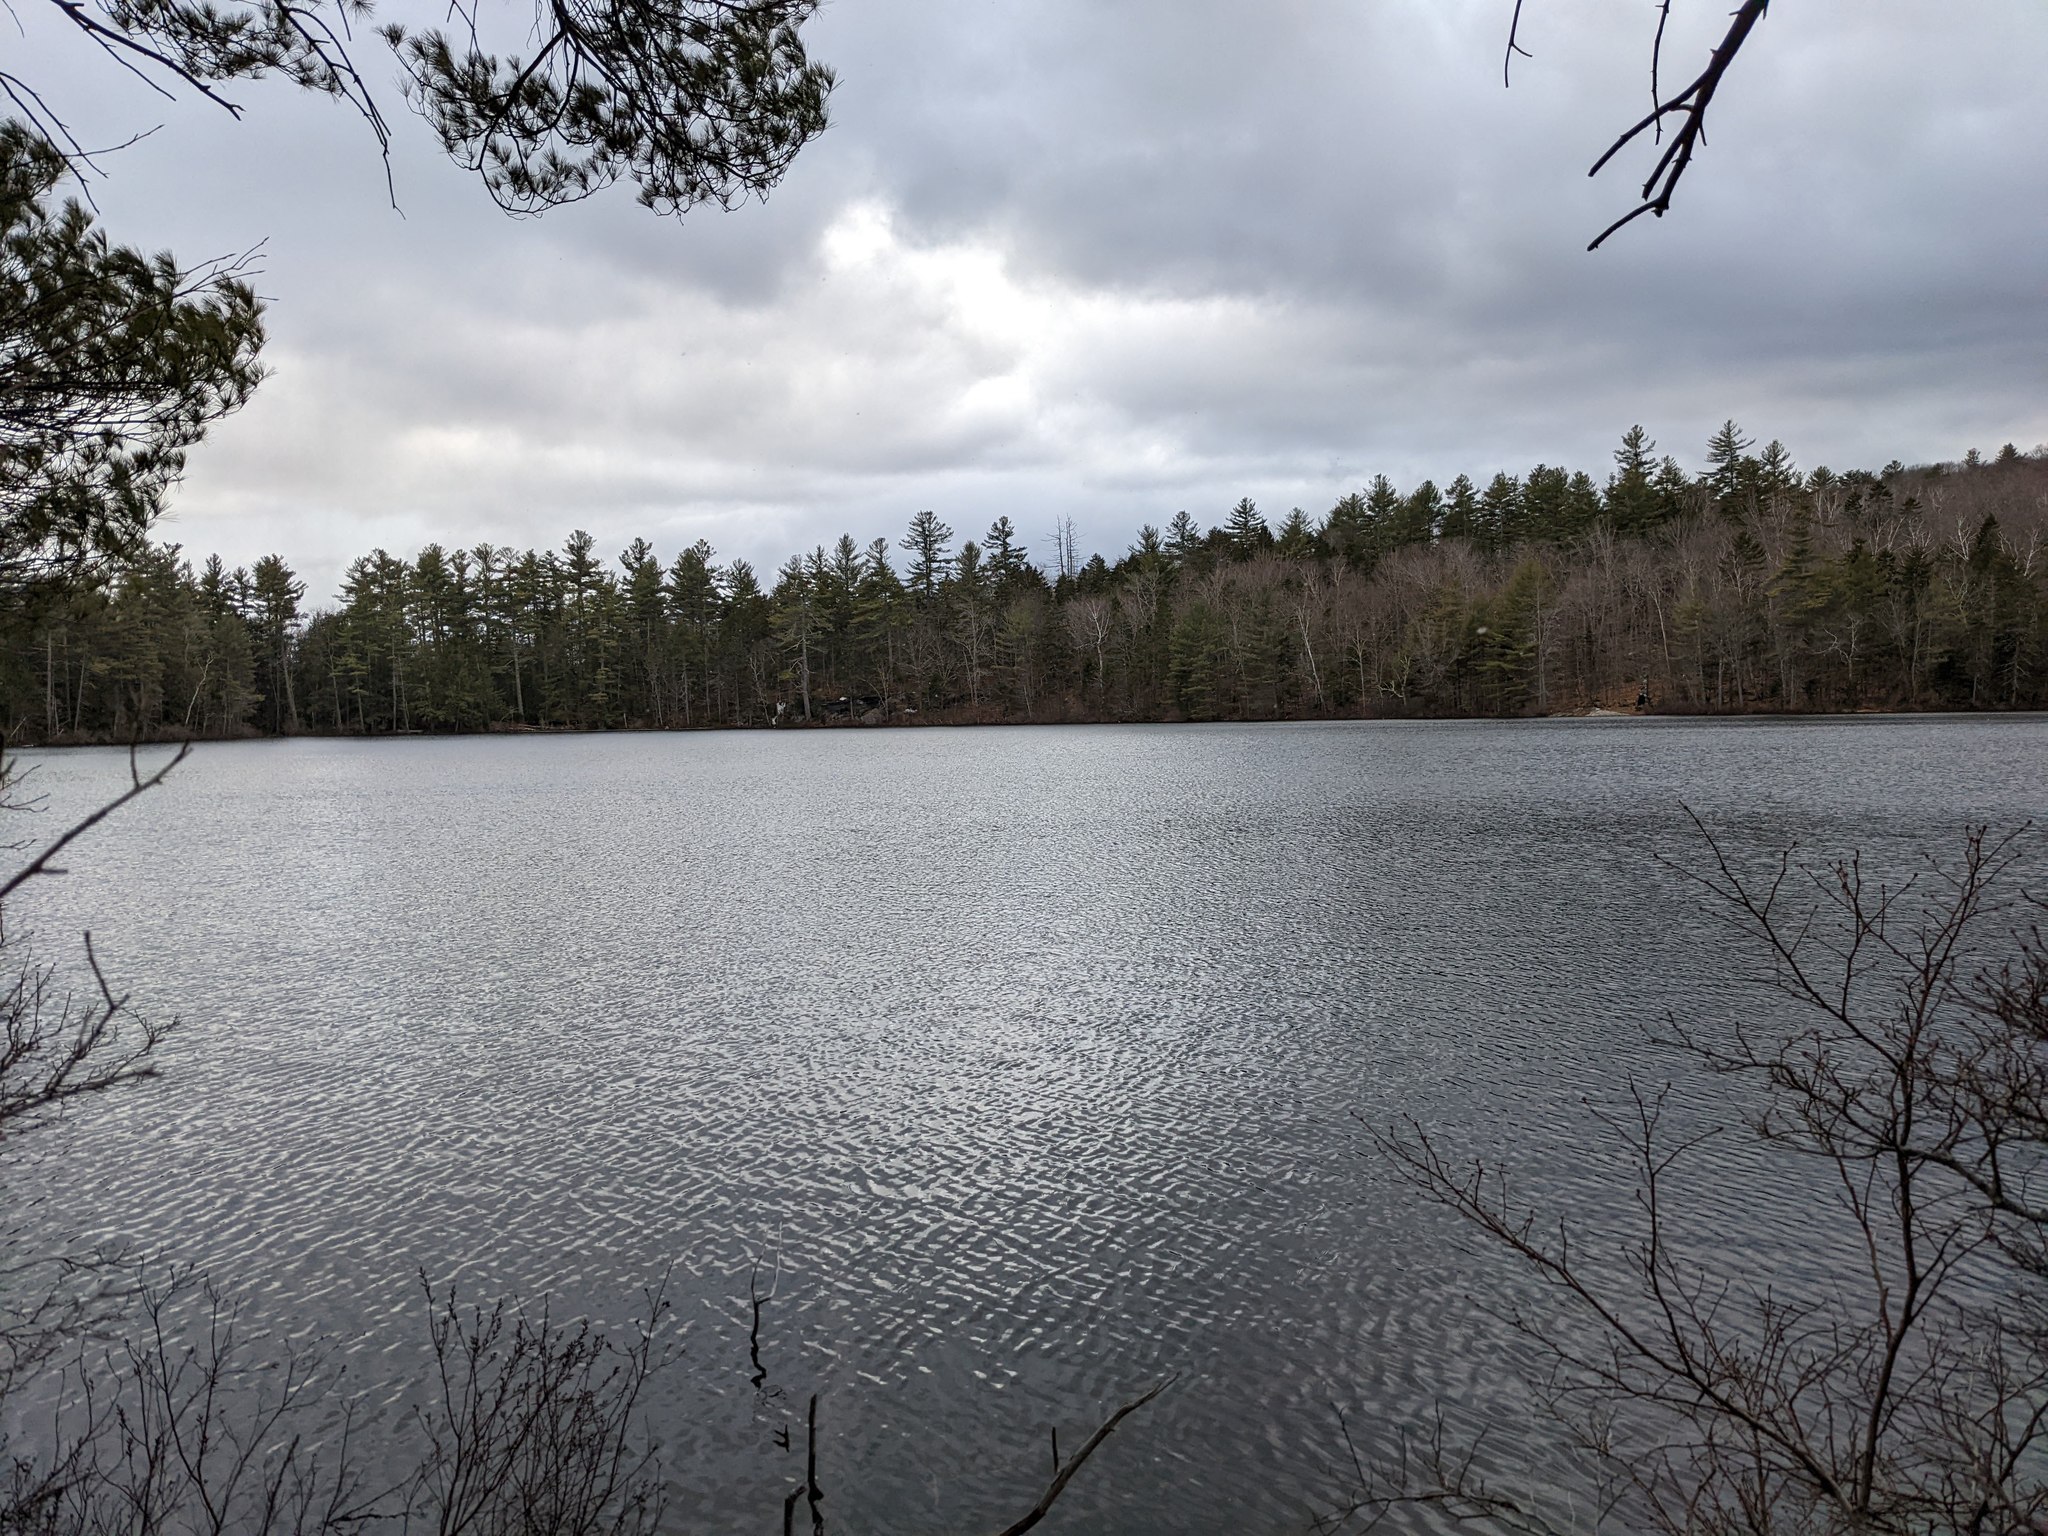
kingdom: Plantae
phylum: Tracheophyta
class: Pinopsida
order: Pinales
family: Pinaceae
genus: Pinus
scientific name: Pinus strobus
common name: Weymouth pine
